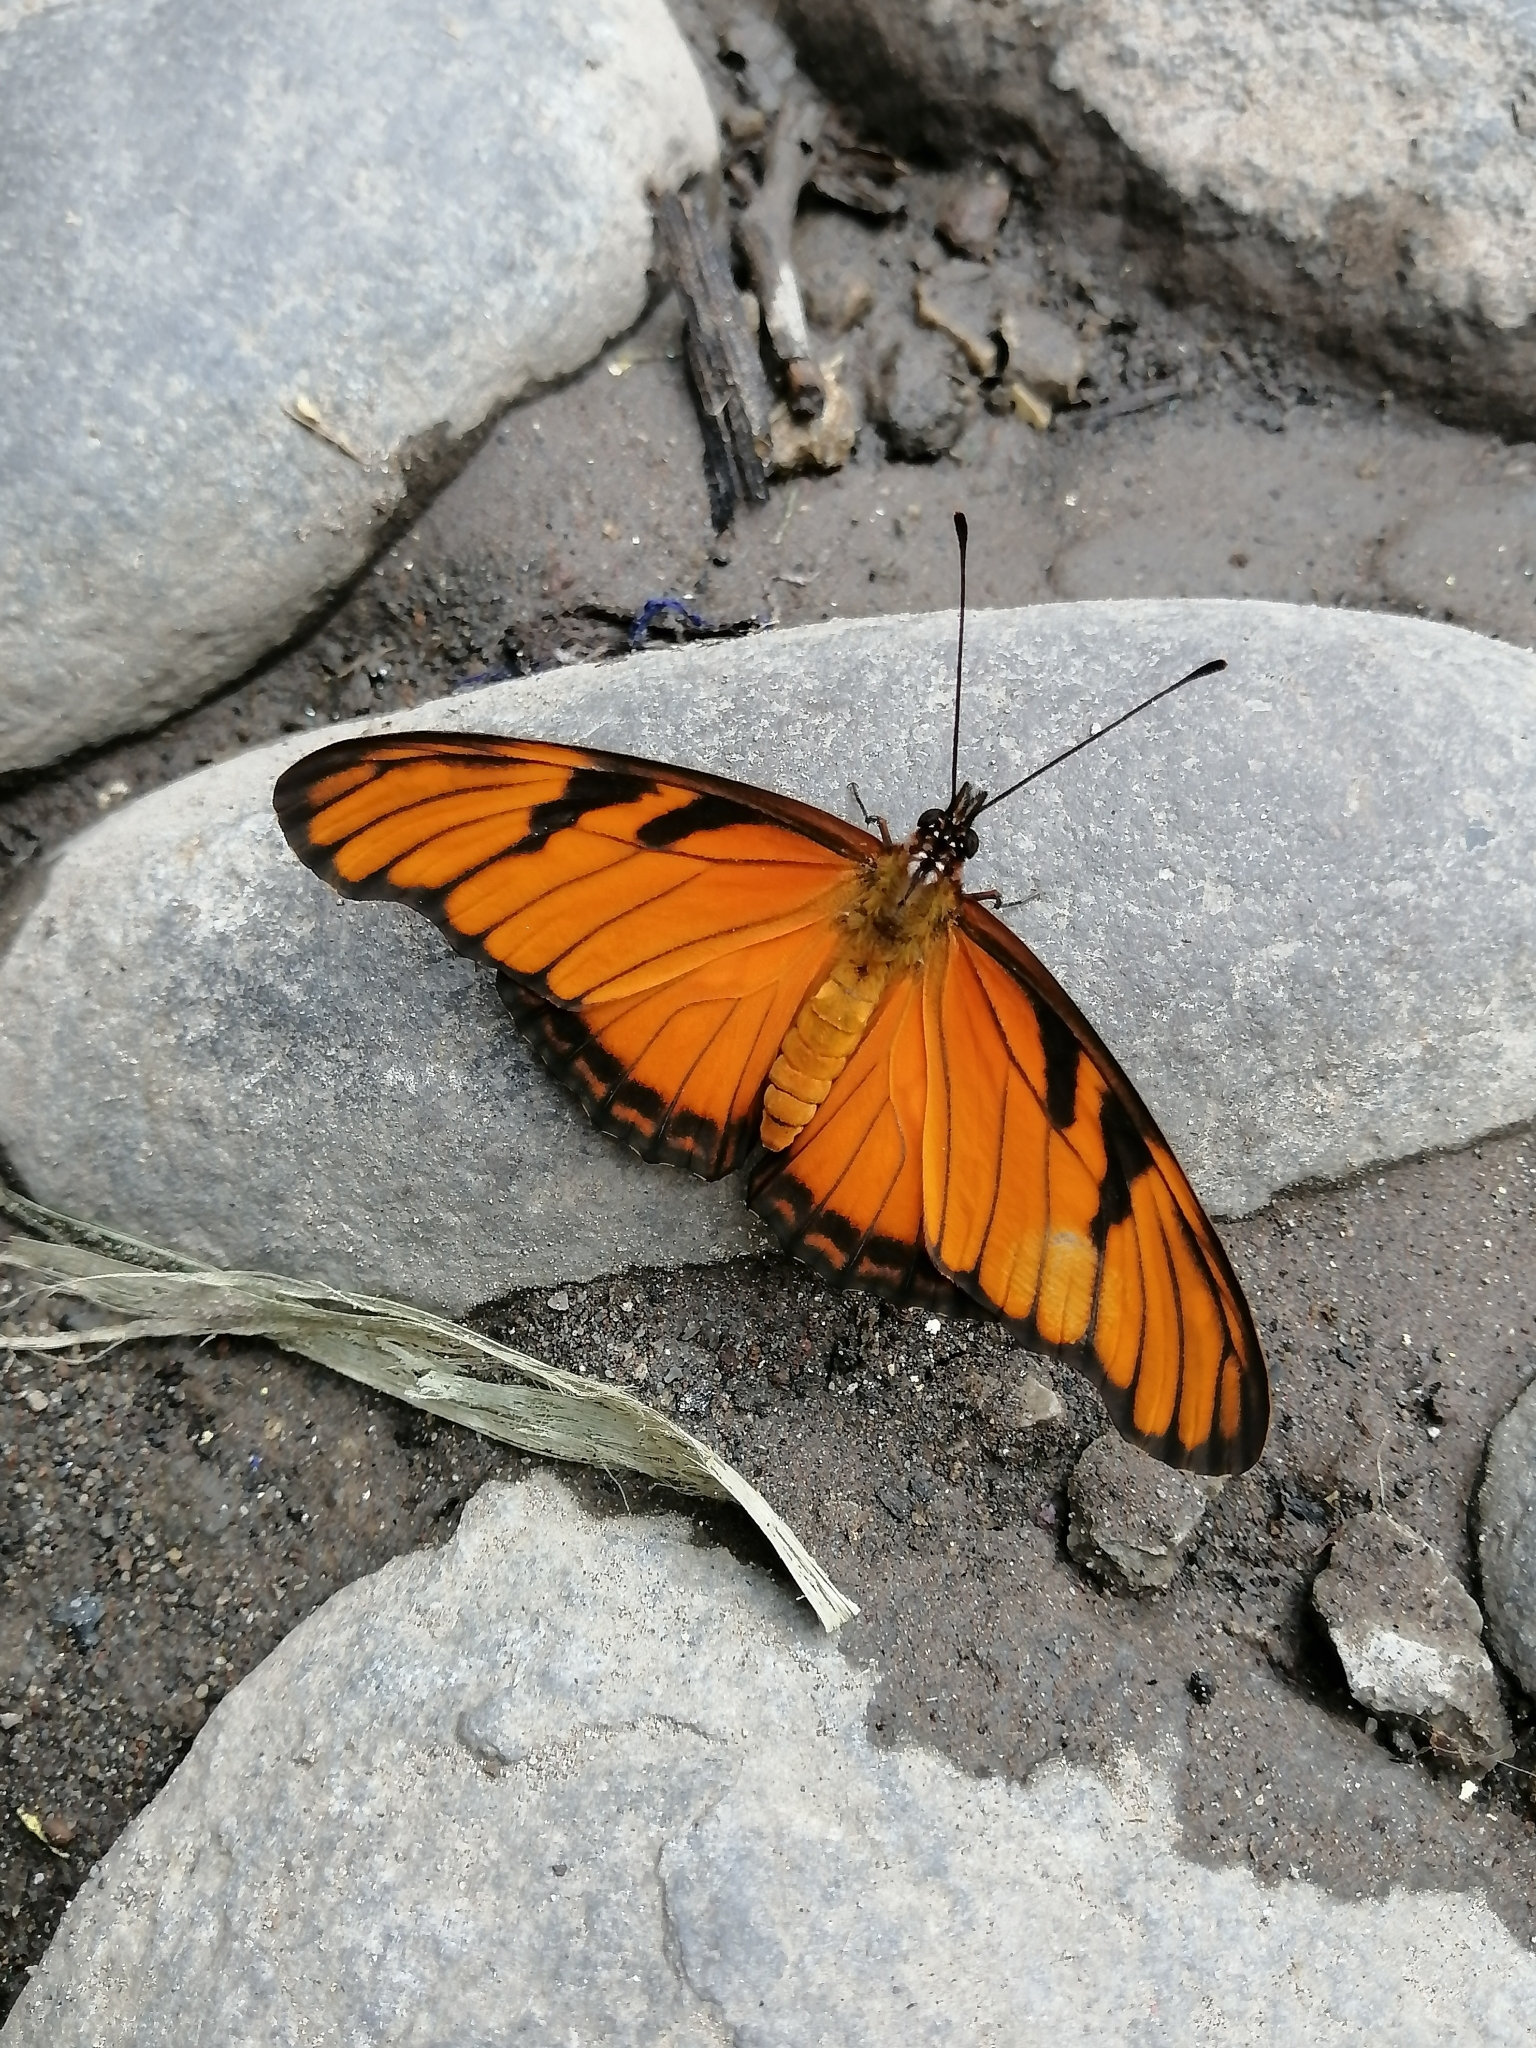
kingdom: Animalia
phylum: Arthropoda
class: Insecta
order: Lepidoptera
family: Nymphalidae
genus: Dione
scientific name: Dione juno
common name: Juno silverspot
